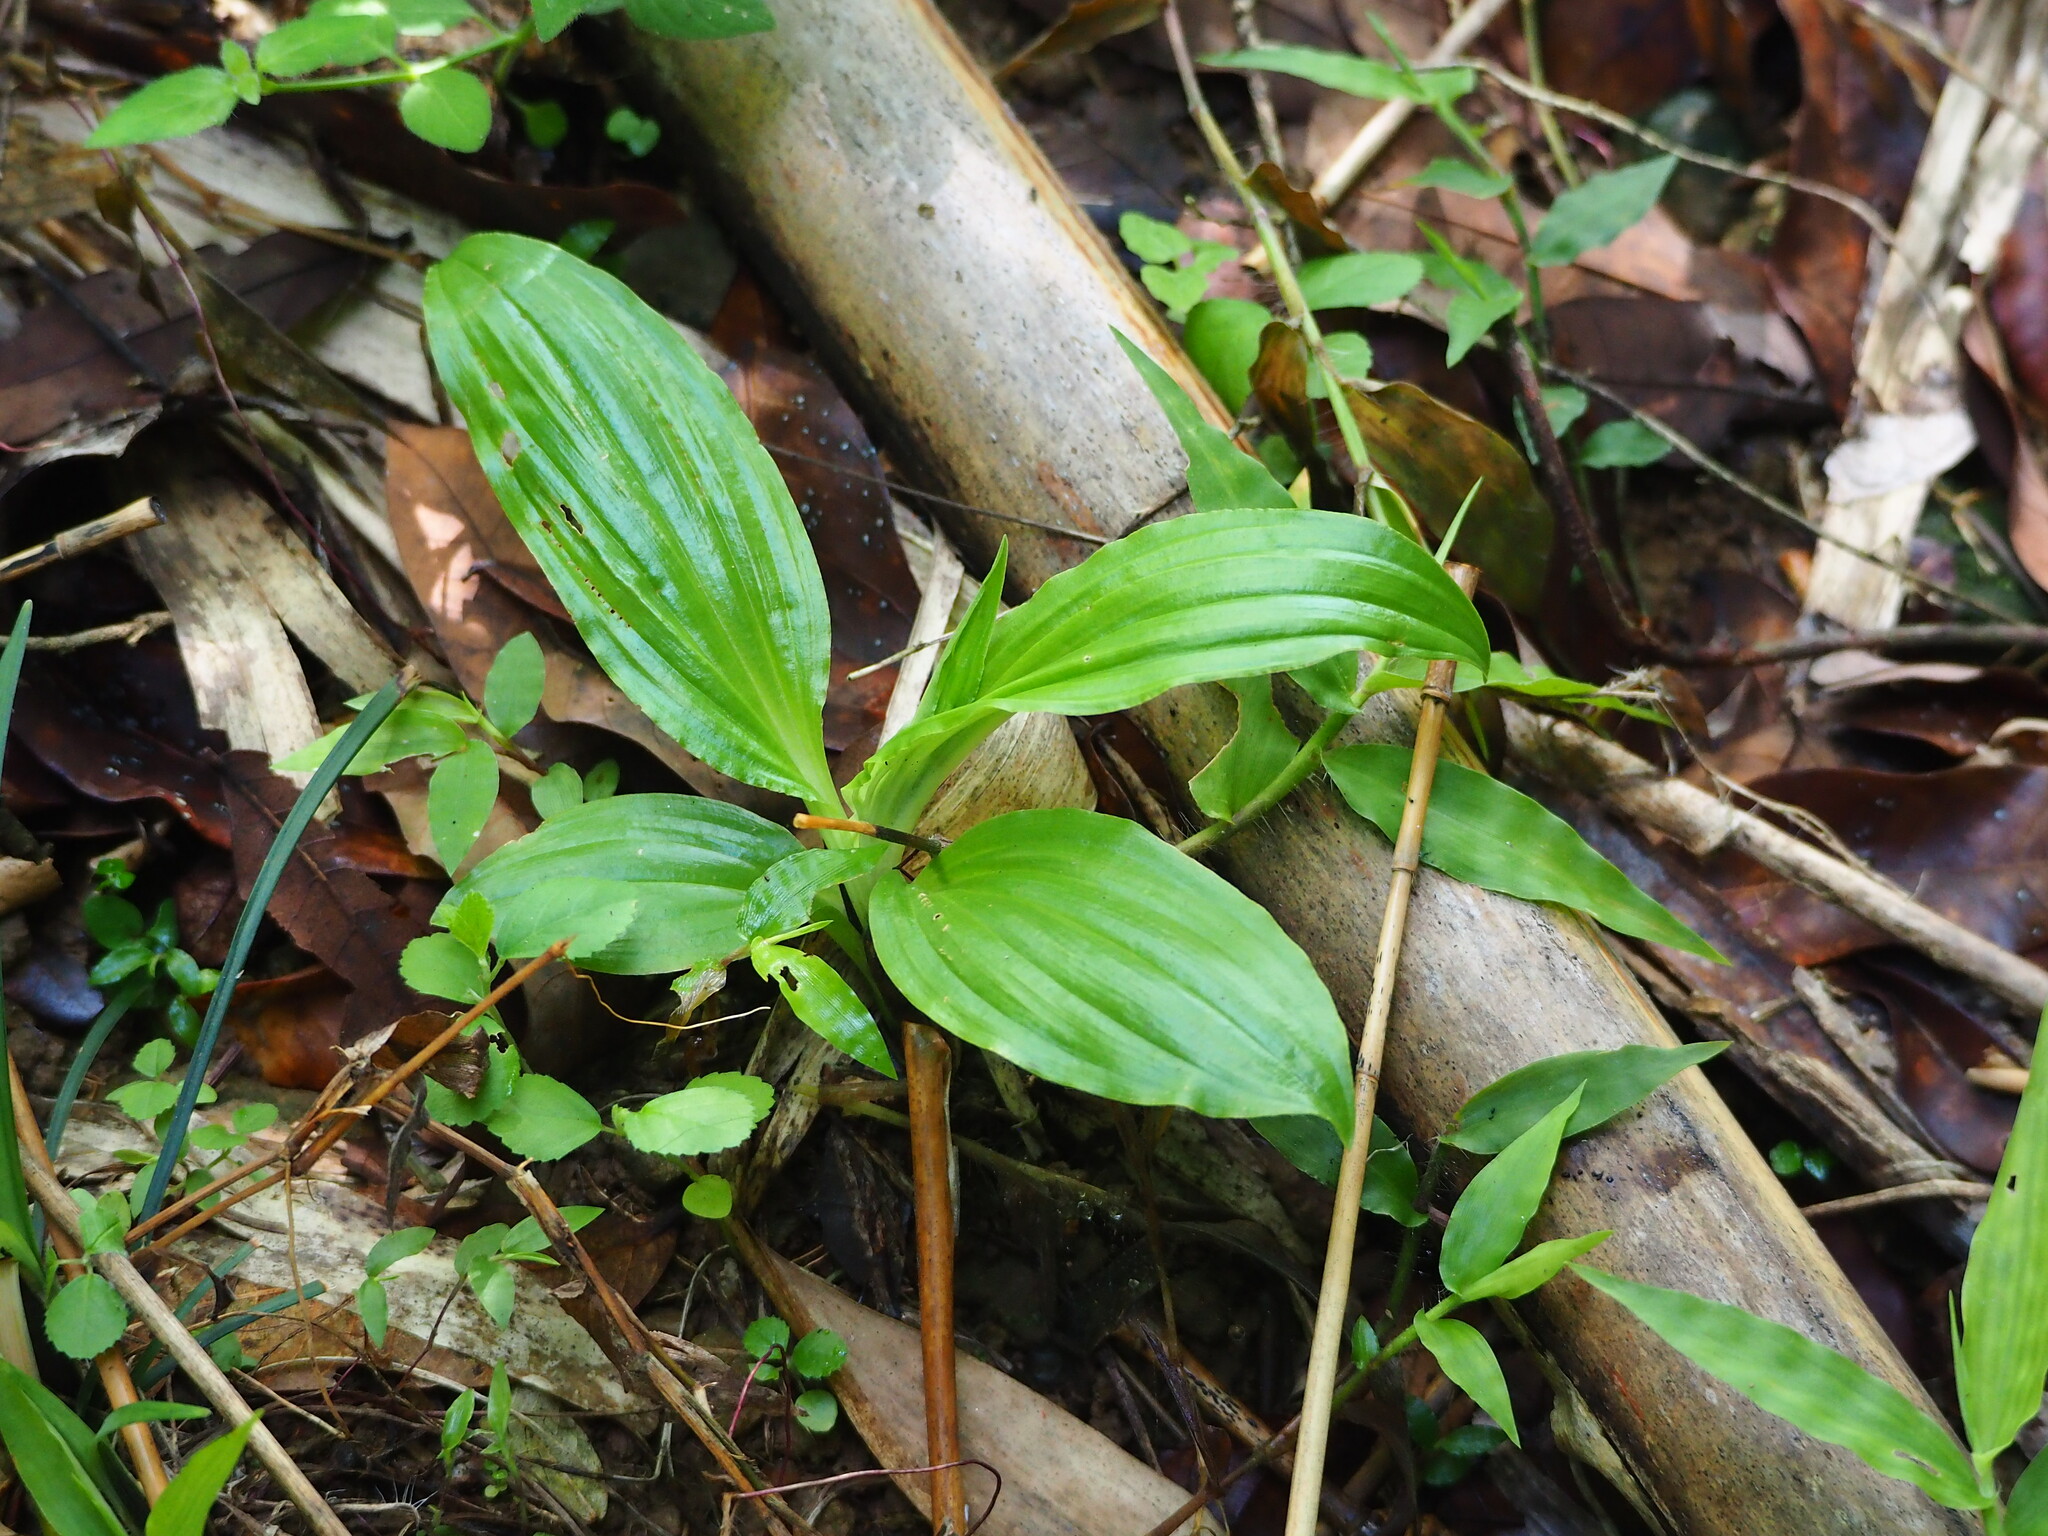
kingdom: Plantae
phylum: Tracheophyta
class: Liliopsida
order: Asparagales
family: Orchidaceae
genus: Dienia
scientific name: Dienia ophrydis
